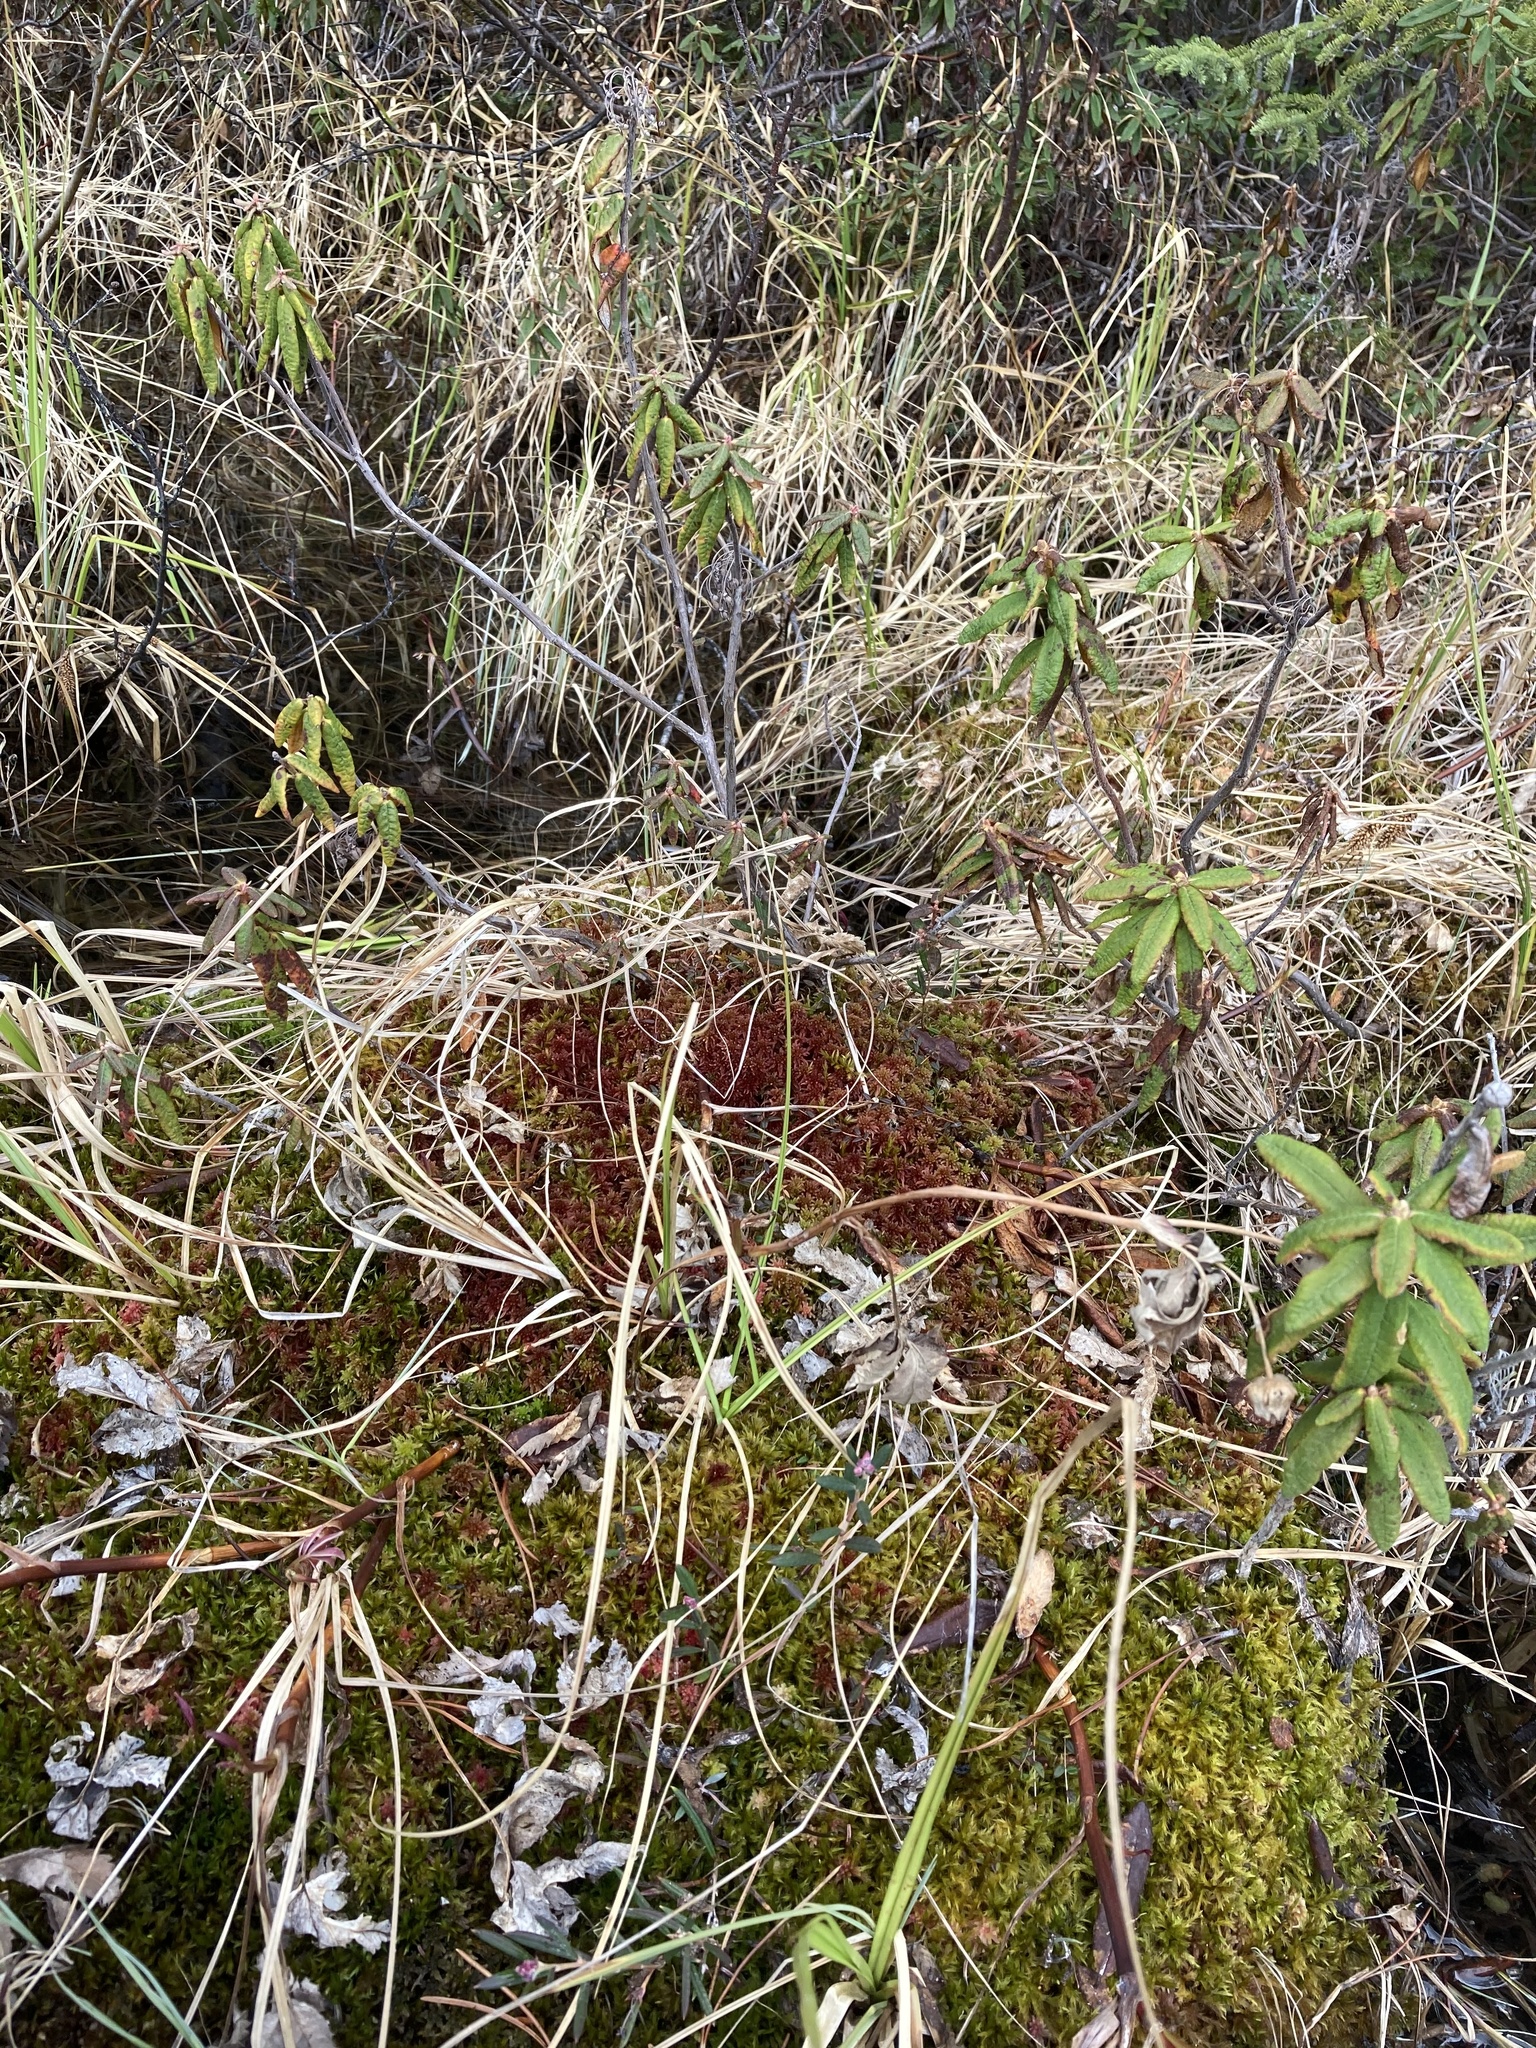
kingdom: Plantae
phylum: Bryophyta
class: Sphagnopsida
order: Sphagnales
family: Sphagnaceae
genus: Sphagnum
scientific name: Sphagnum warnstorfii
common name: Warnstorf's peat moss
